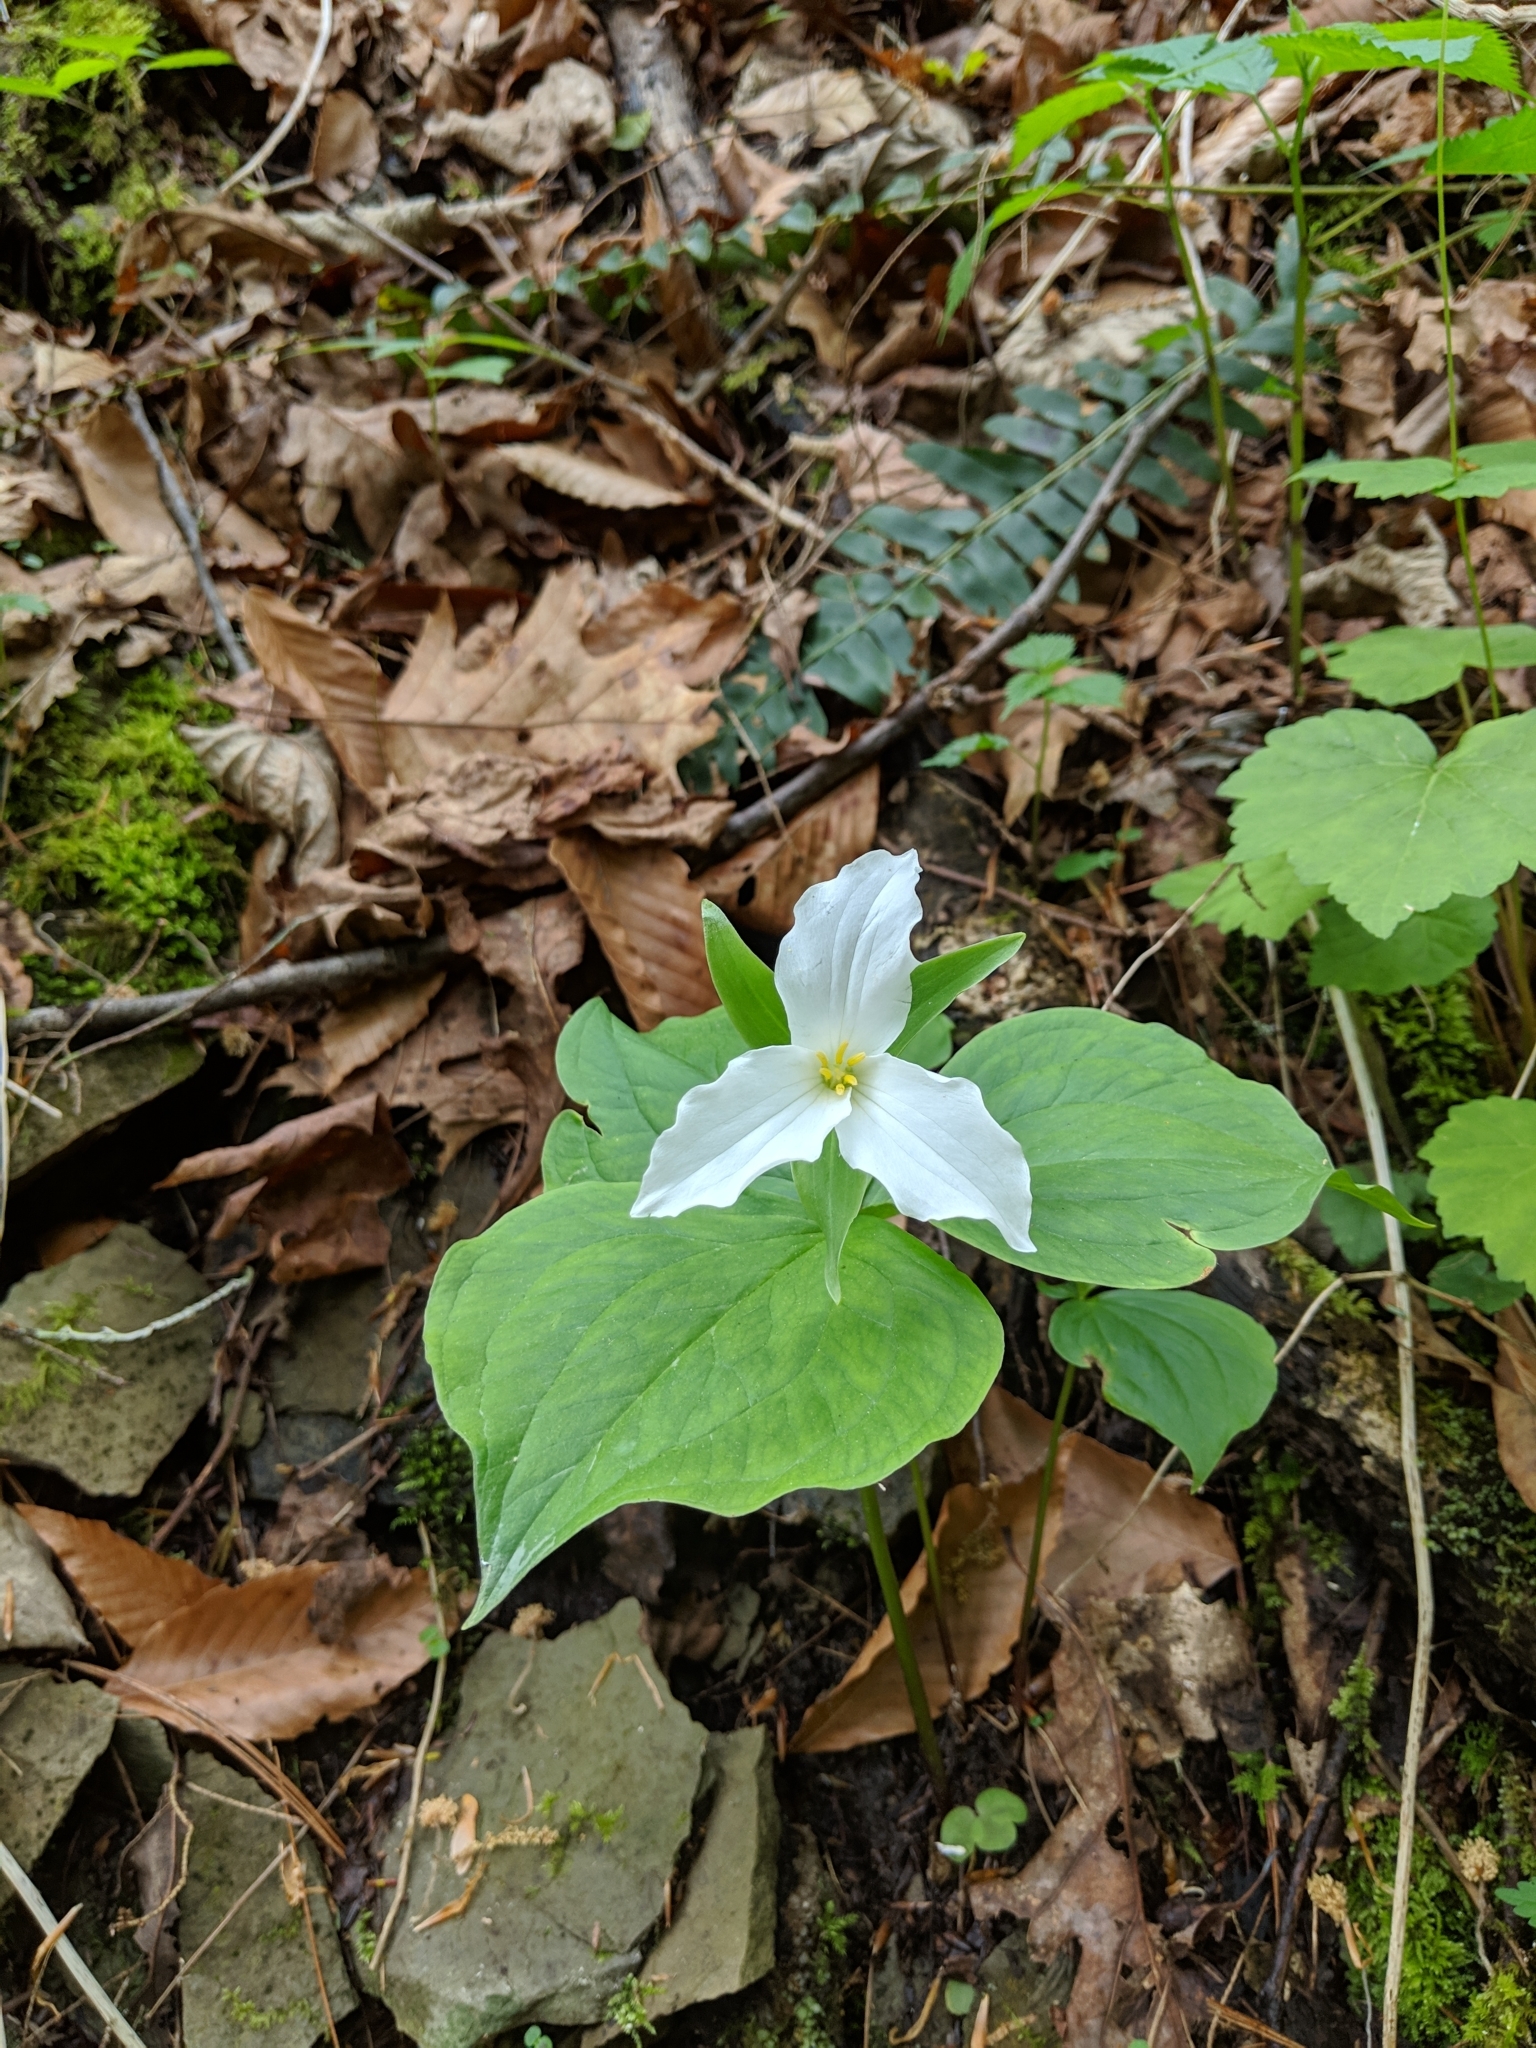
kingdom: Plantae
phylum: Tracheophyta
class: Liliopsida
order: Liliales
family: Melanthiaceae
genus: Trillium
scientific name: Trillium grandiflorum
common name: Great white trillium
